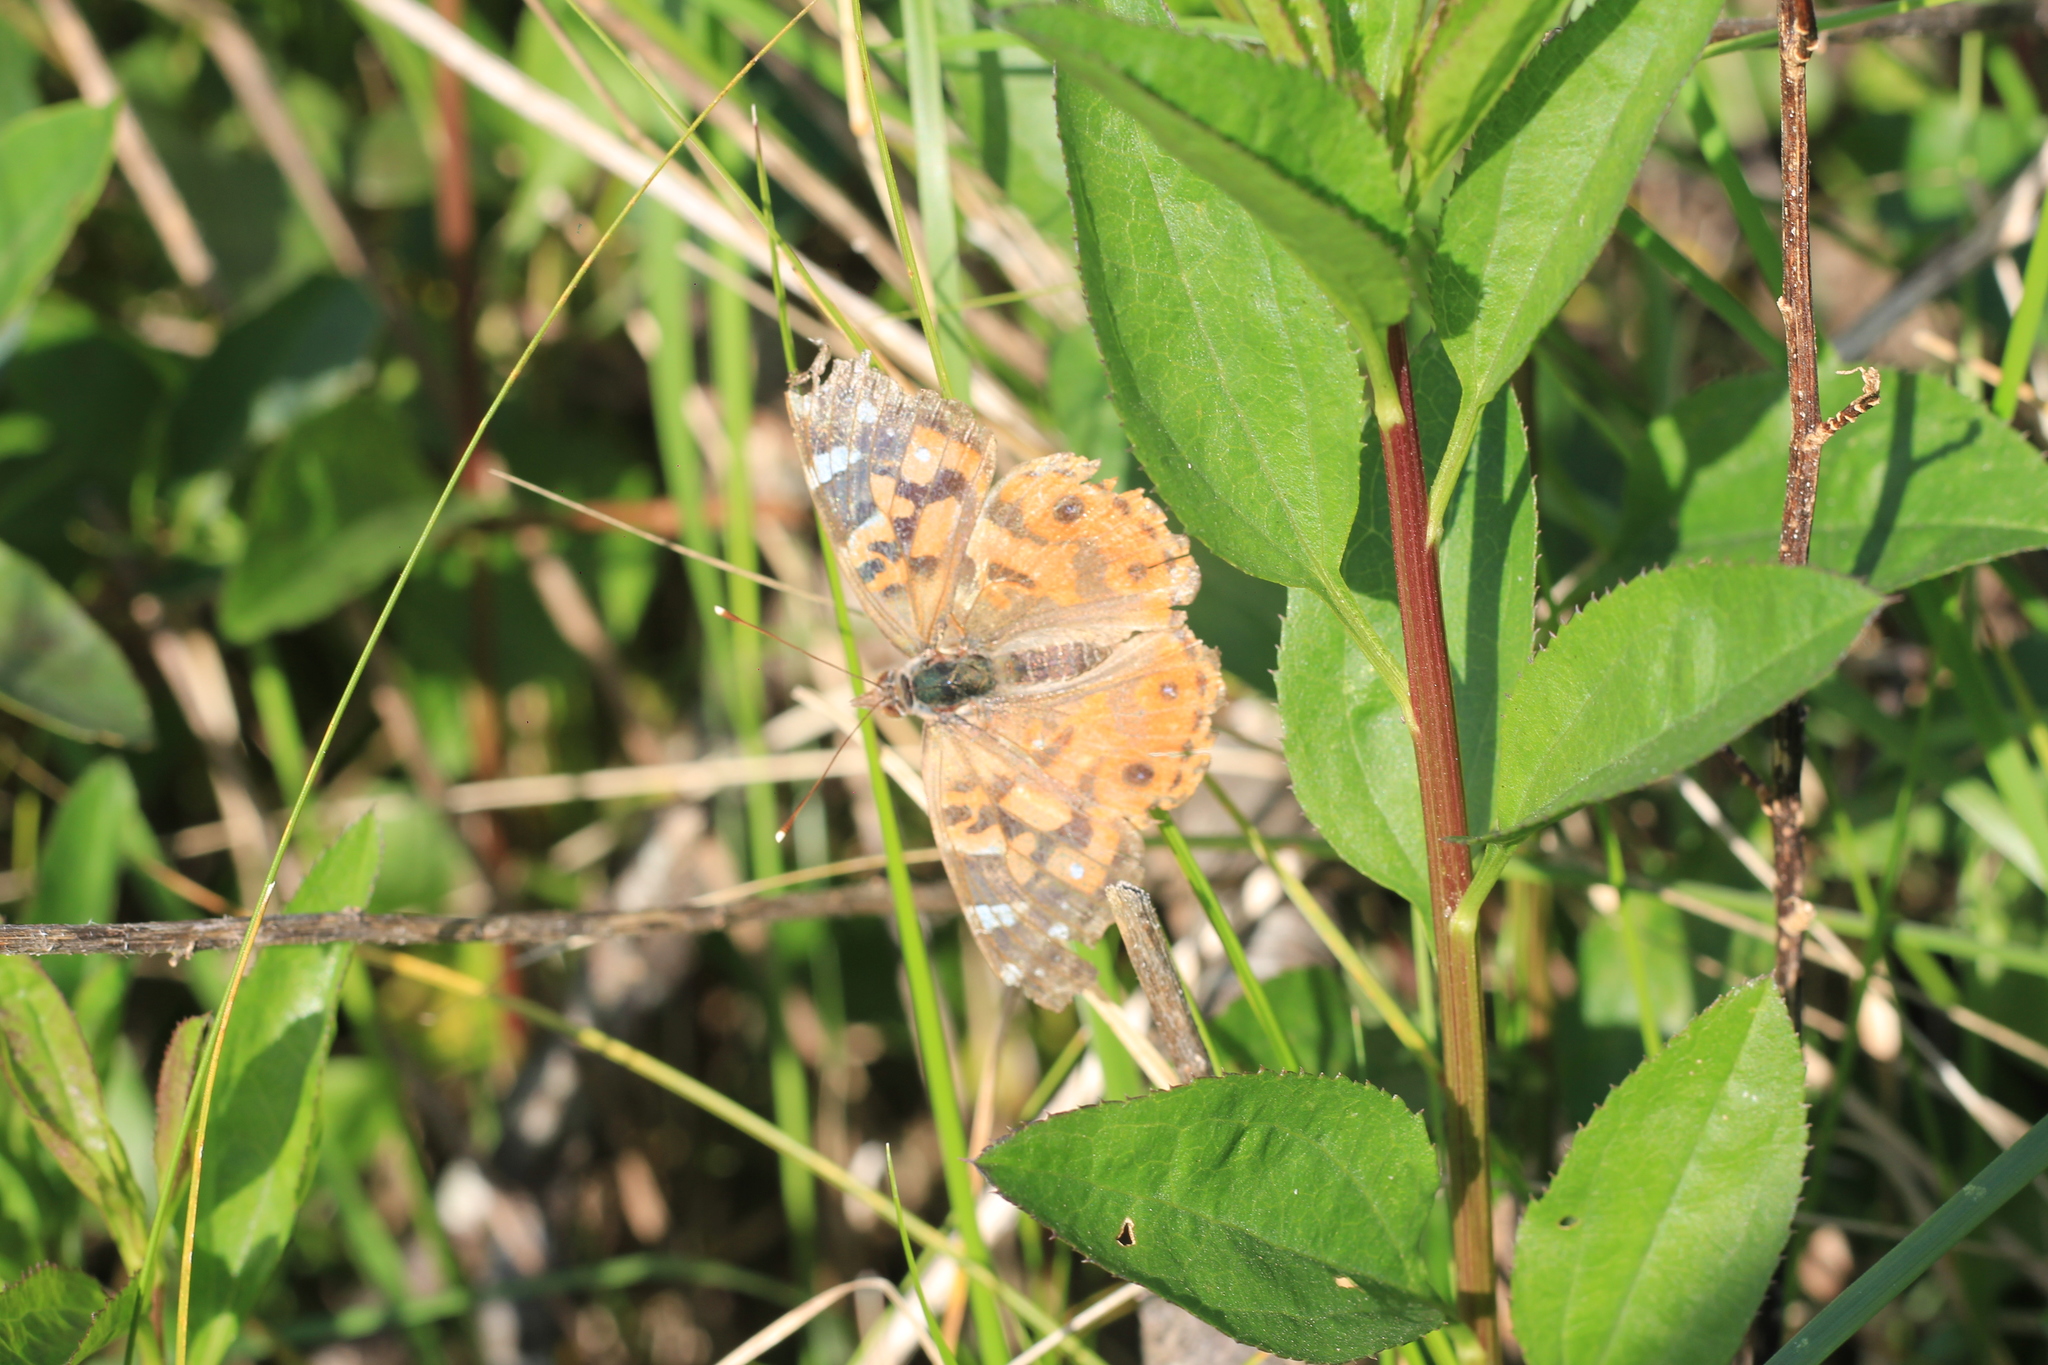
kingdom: Animalia
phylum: Arthropoda
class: Insecta
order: Lepidoptera
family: Nymphalidae
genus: Vanessa
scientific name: Vanessa braziliensis
